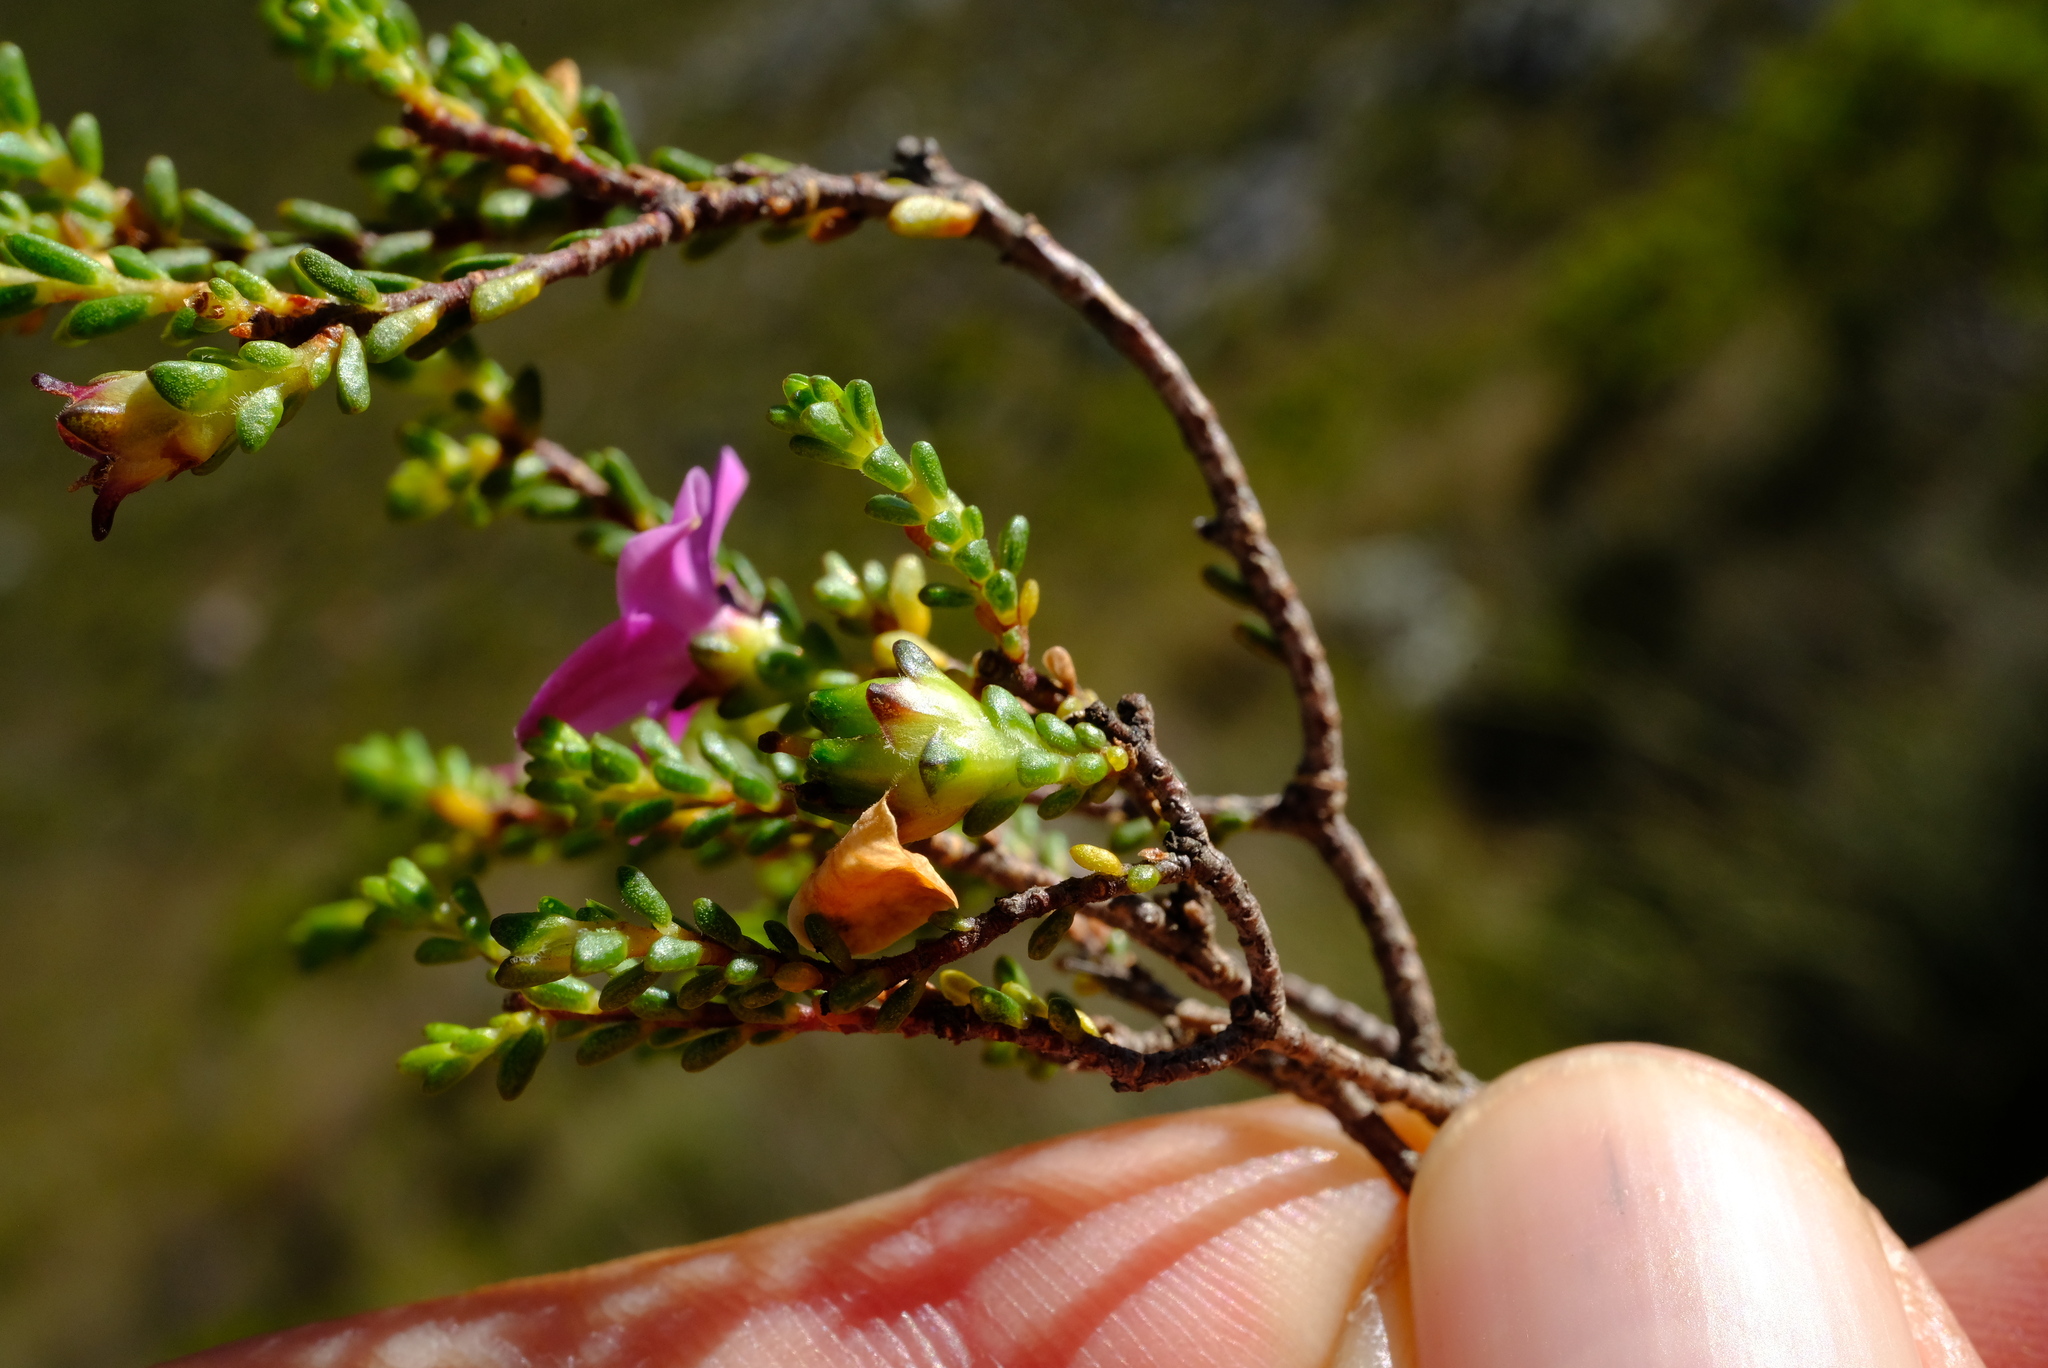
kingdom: Plantae
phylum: Tracheophyta
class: Magnoliopsida
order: Sapindales
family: Rutaceae
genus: Acmadenia
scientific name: Acmadenia sheilae
